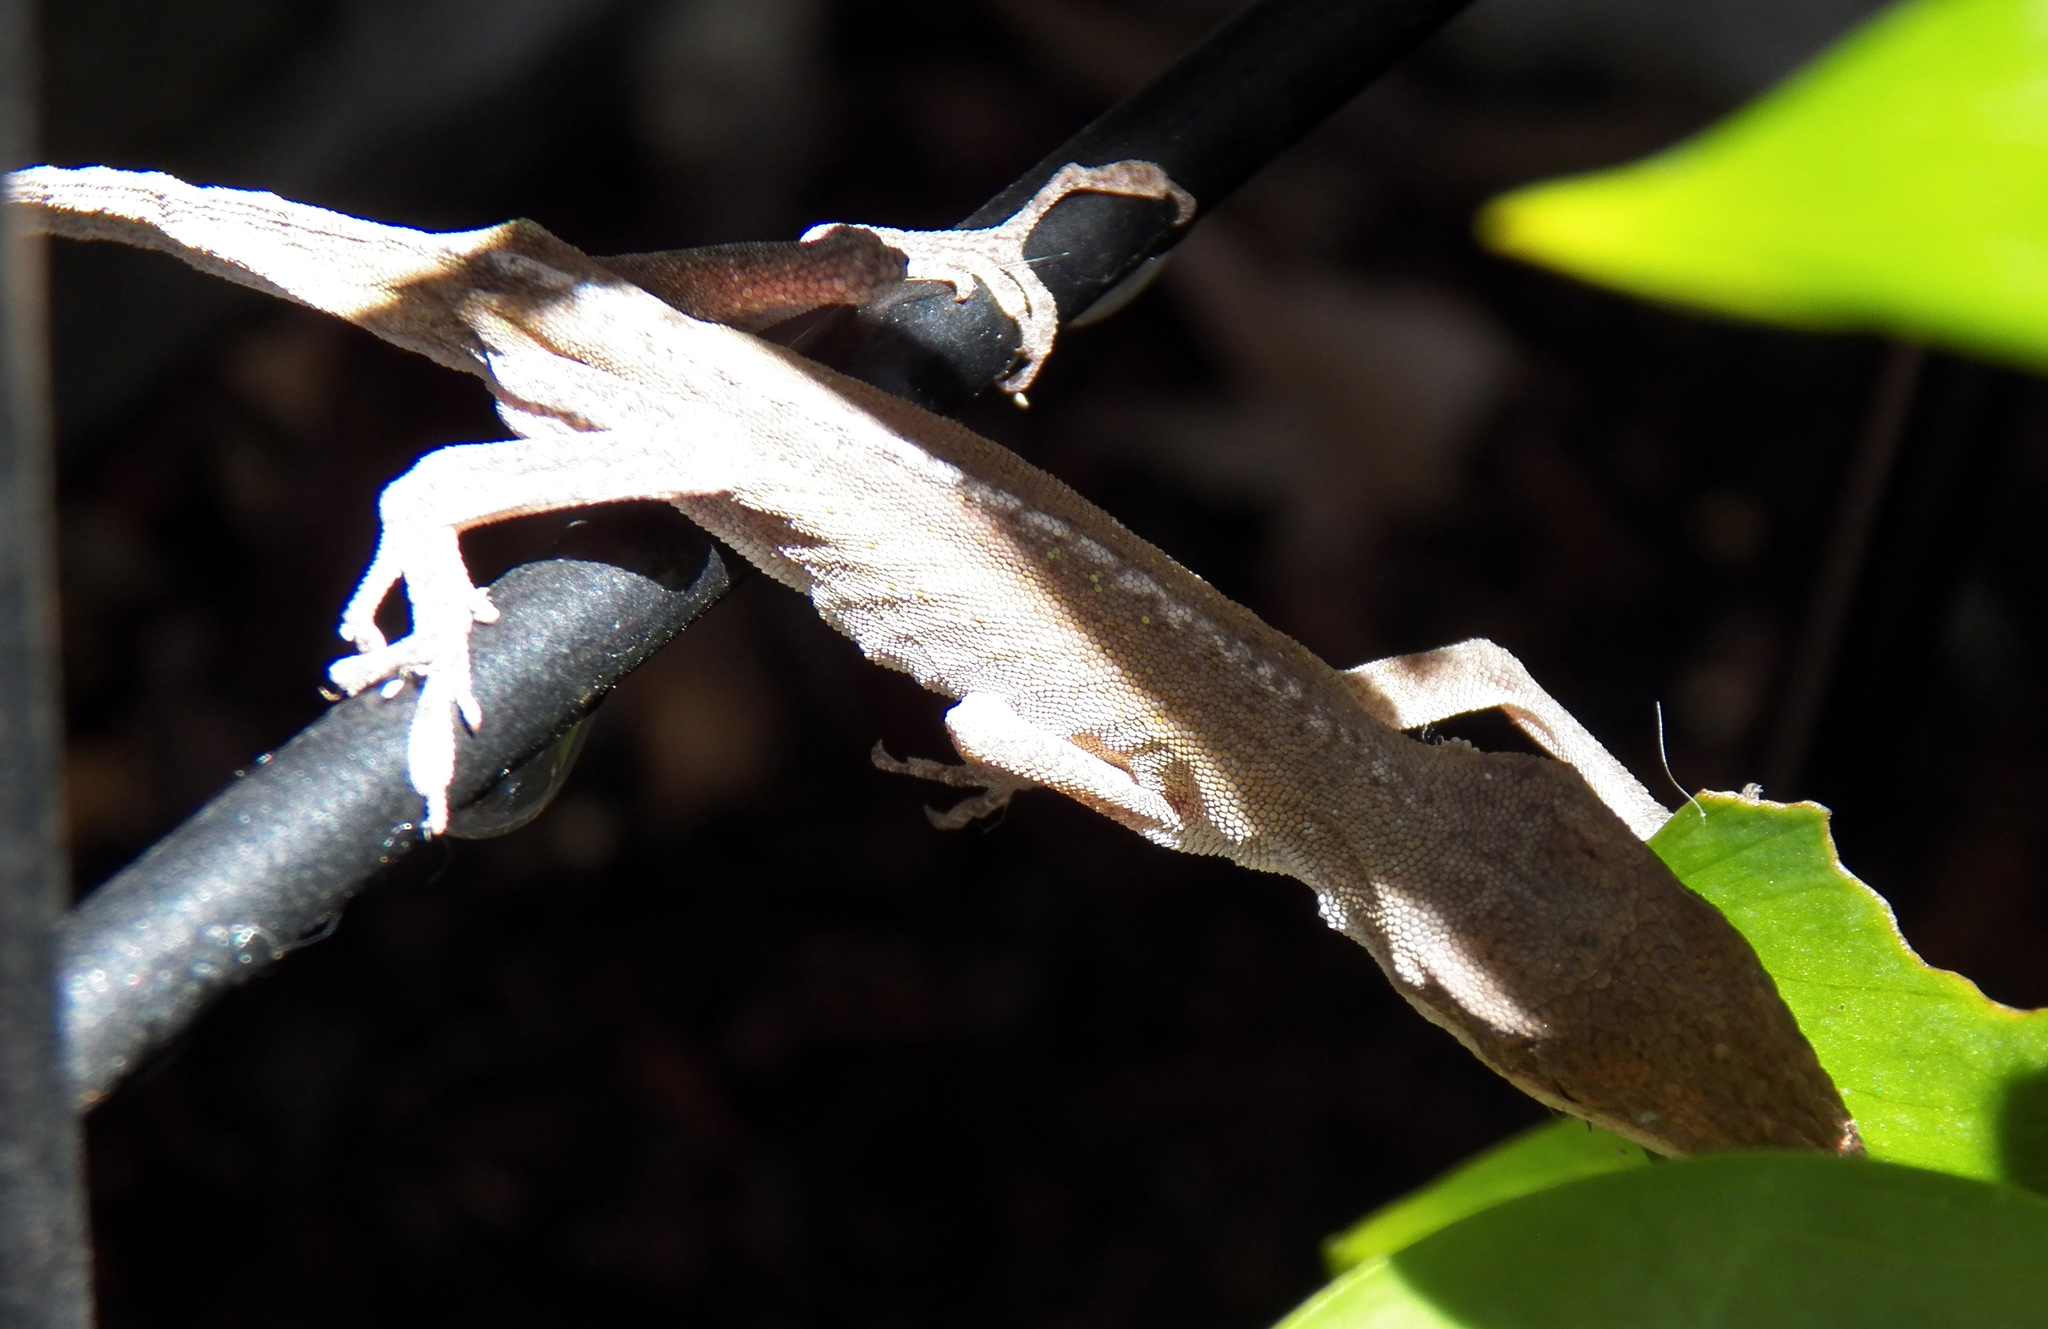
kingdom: Animalia
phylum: Chordata
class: Squamata
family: Dactyloidae
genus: Anolis
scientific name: Anolis carolinensis
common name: Green anole
